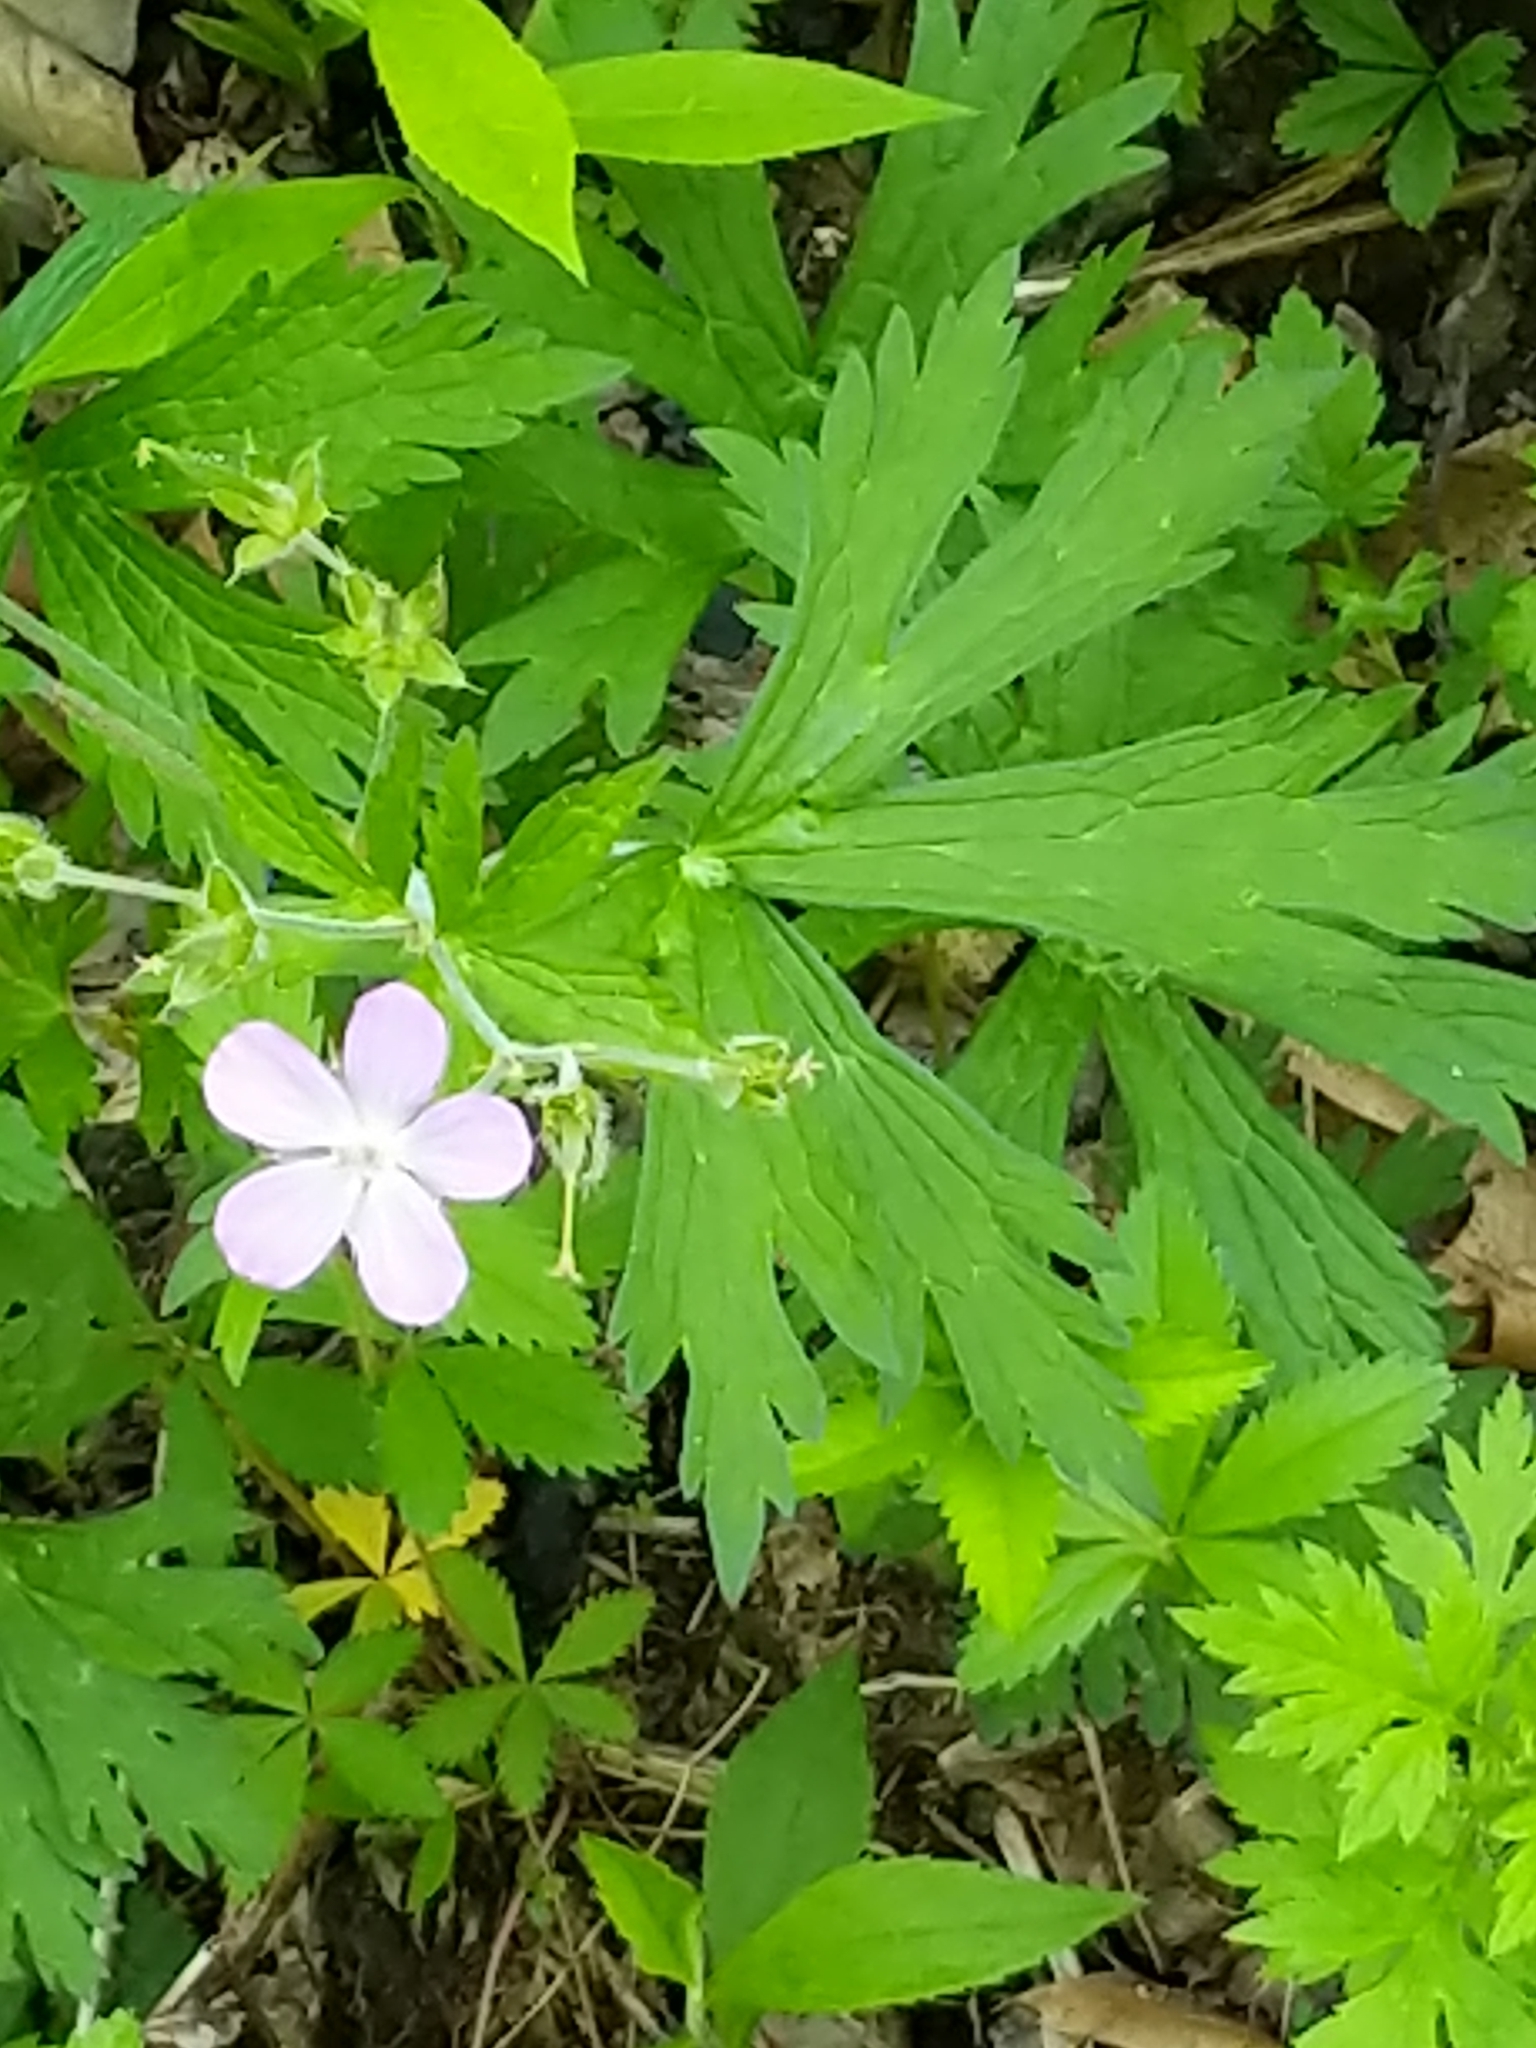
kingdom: Plantae
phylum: Tracheophyta
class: Magnoliopsida
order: Geraniales
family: Geraniaceae
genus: Geranium
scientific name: Geranium maculatum
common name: Spotted geranium
